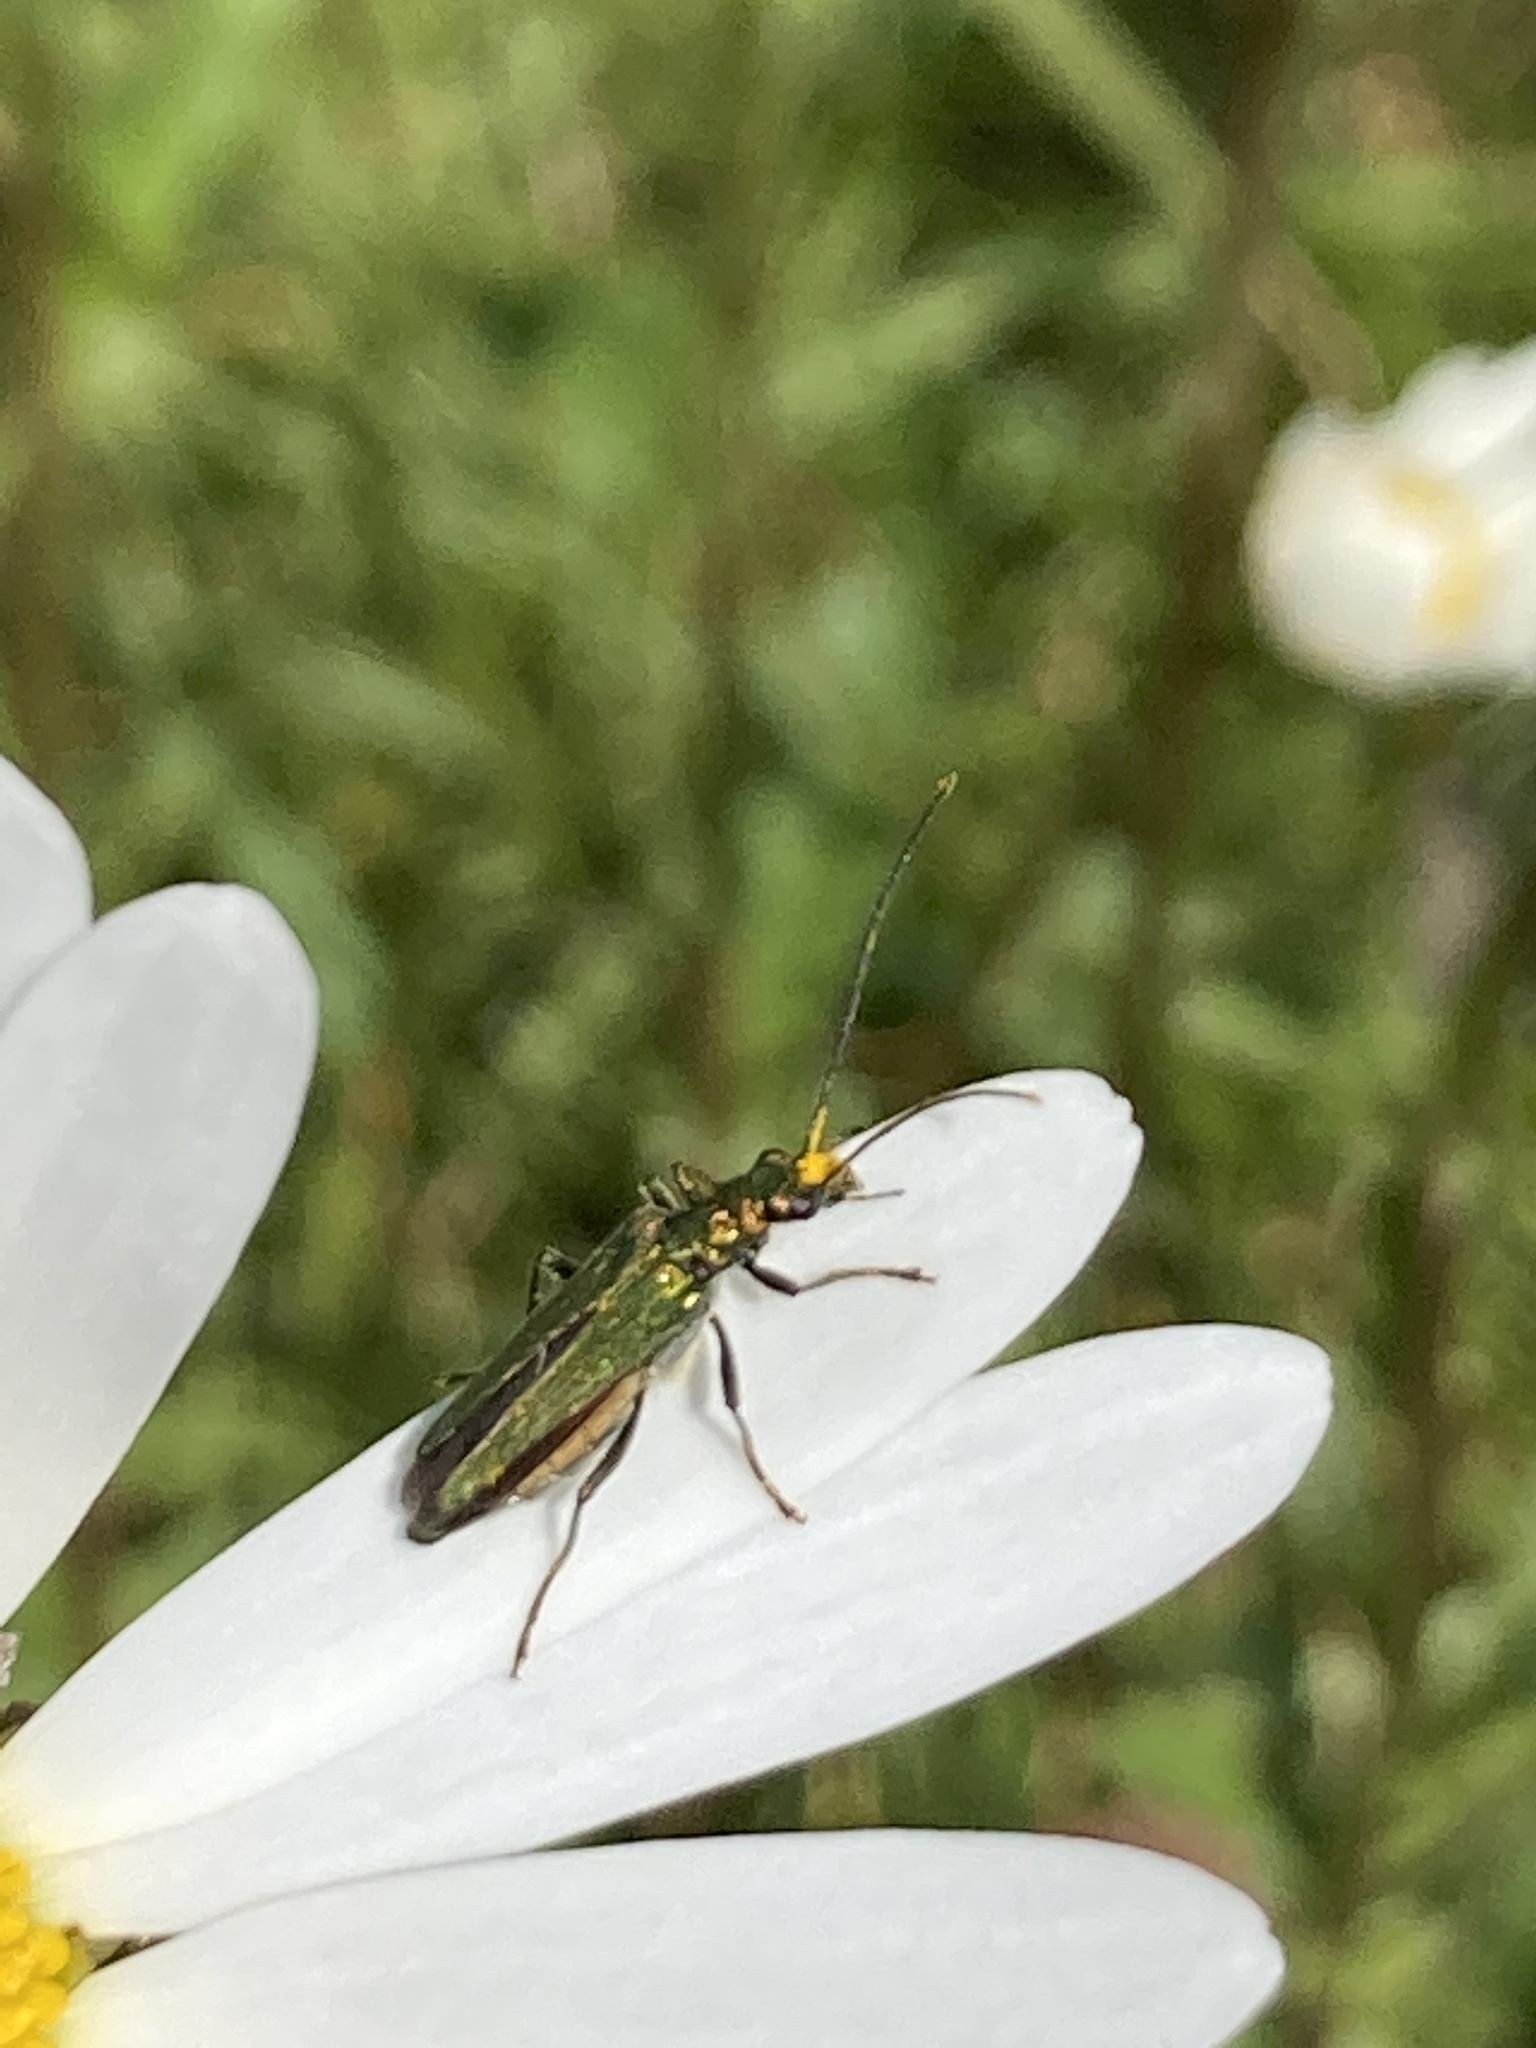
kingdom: Animalia
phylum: Arthropoda
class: Insecta
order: Coleoptera
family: Oedemeridae
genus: Oedemera
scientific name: Oedemera nobilis
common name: Swollen-thighed beetle
